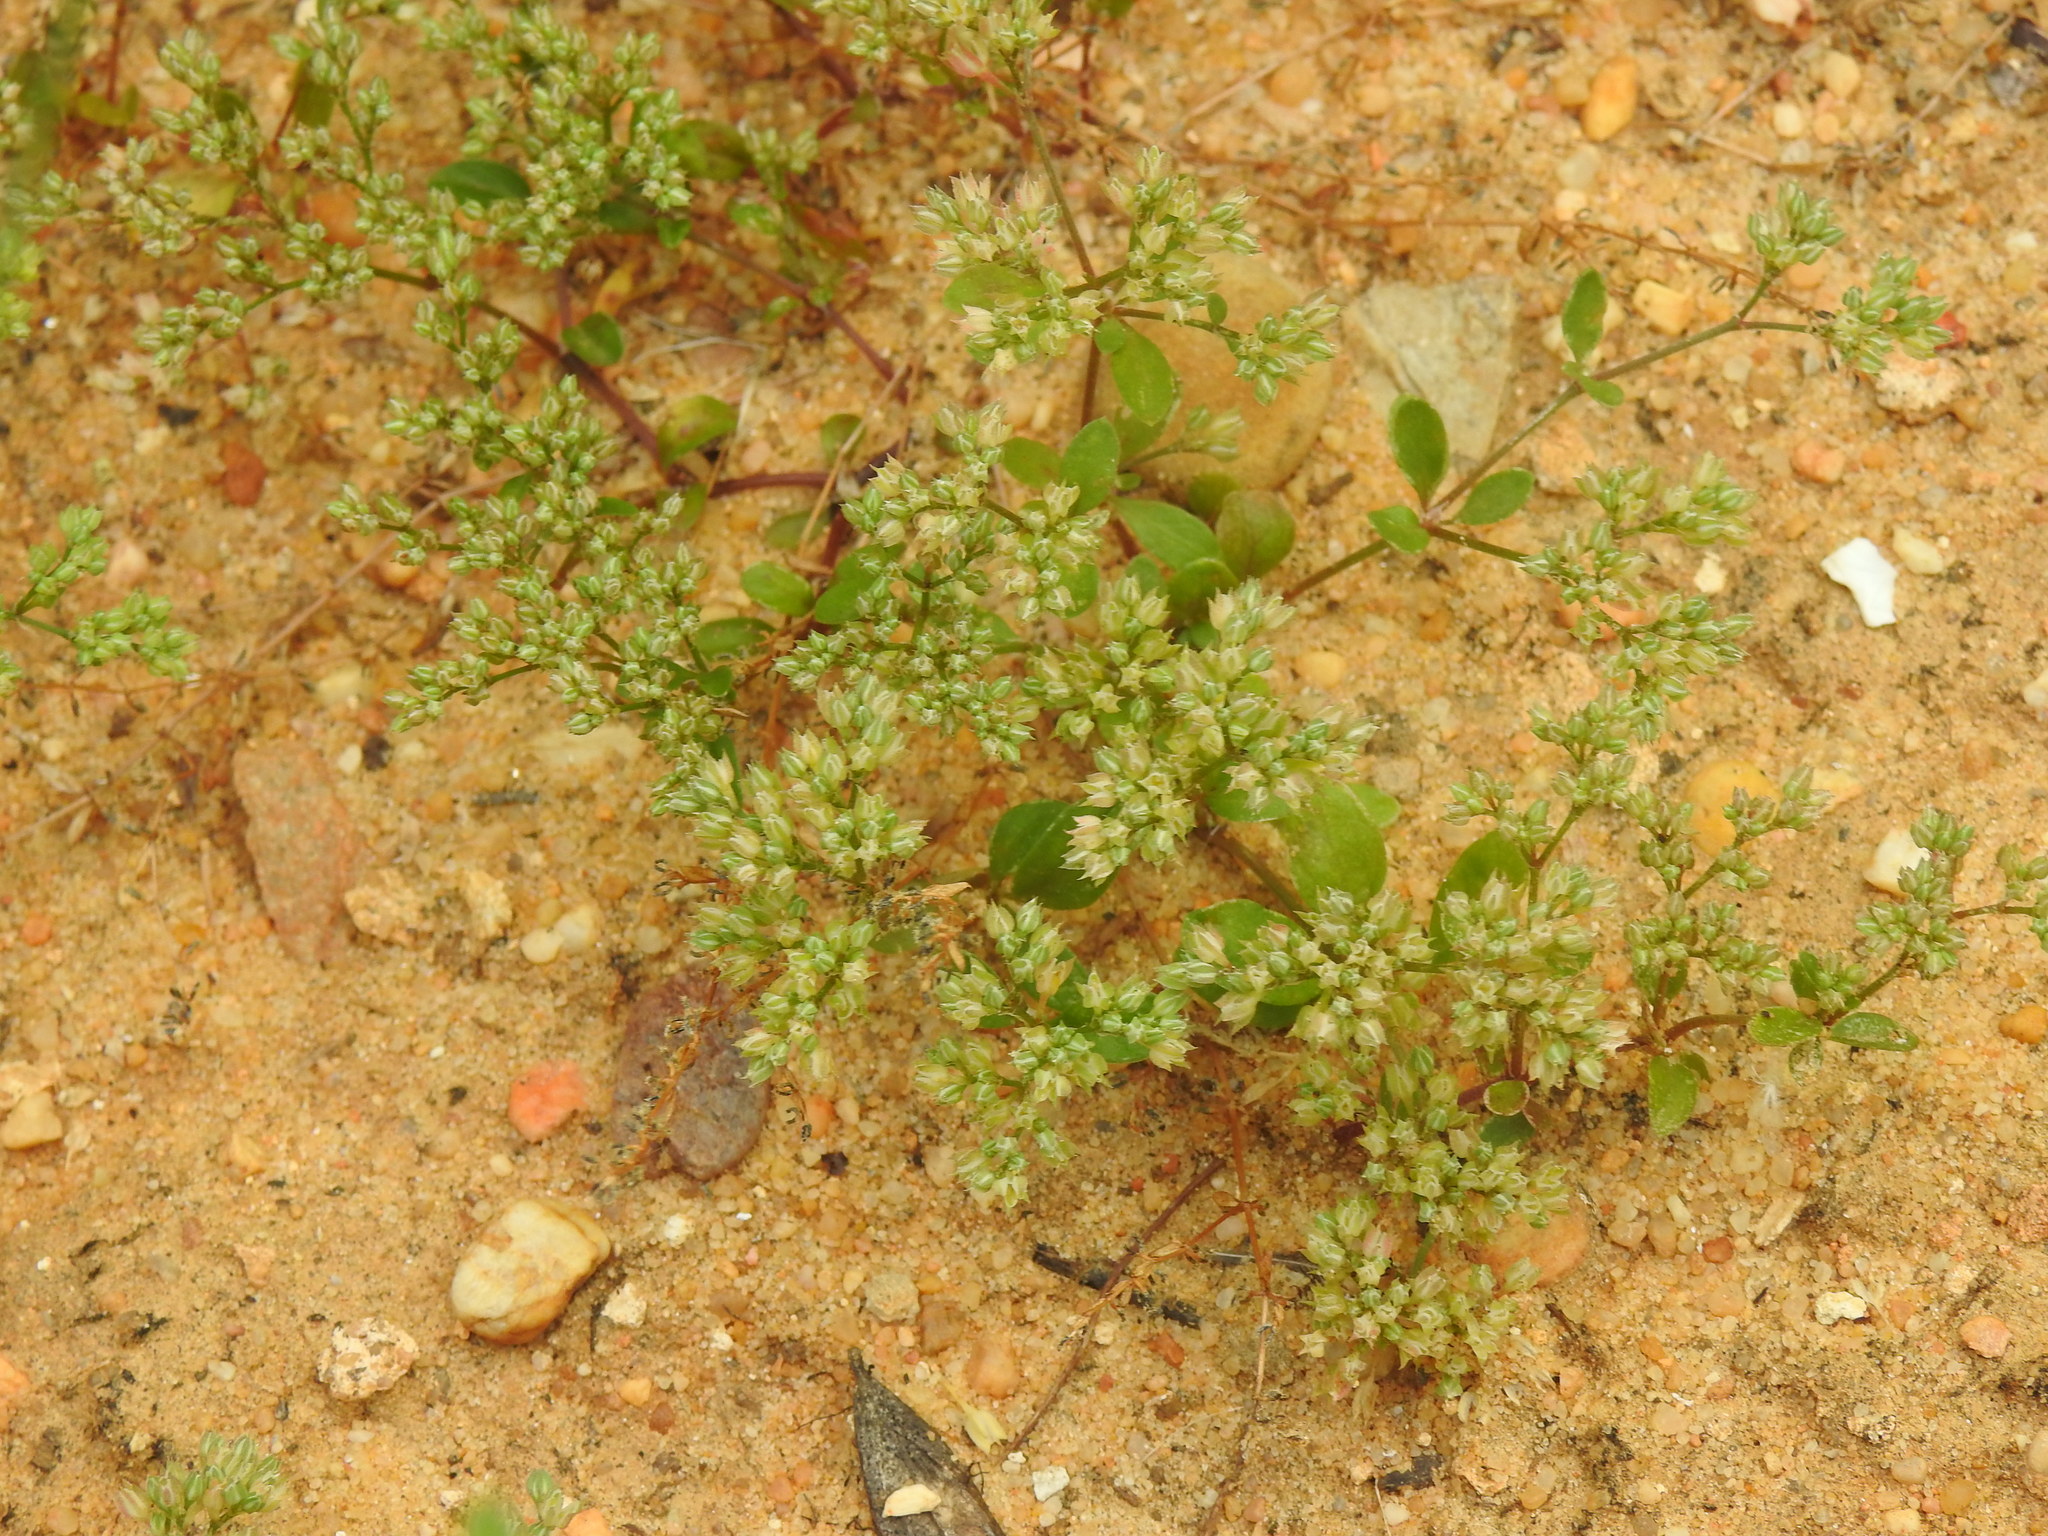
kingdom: Plantae
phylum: Tracheophyta
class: Magnoliopsida
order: Caryophyllales
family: Caryophyllaceae
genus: Polycarpon
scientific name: Polycarpon tetraphyllum
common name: Four-leaved all-seed
